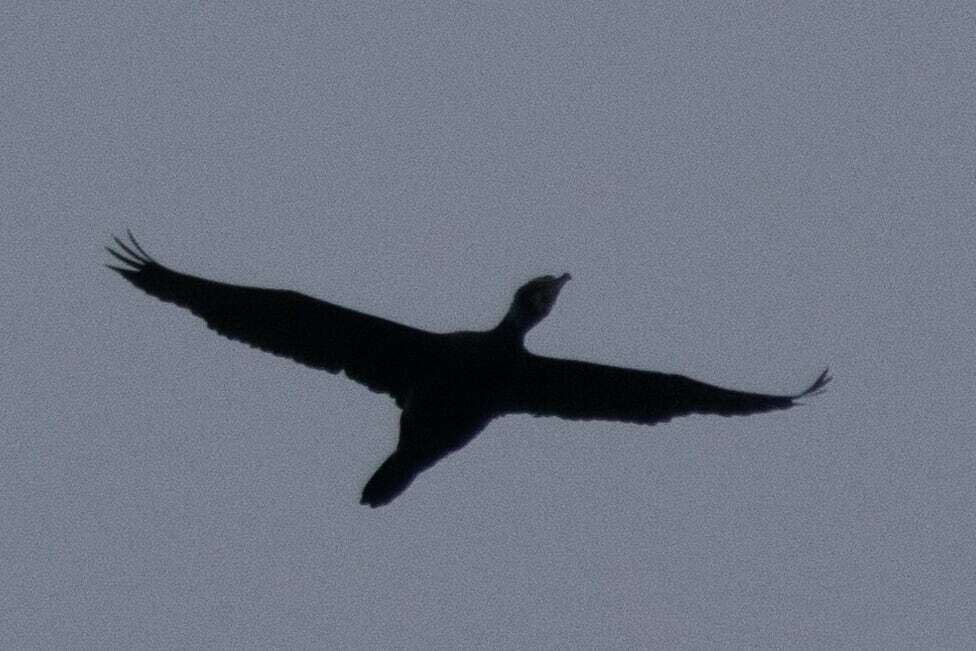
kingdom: Animalia
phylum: Chordata
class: Aves
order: Suliformes
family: Phalacrocoracidae
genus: Phalacrocorax
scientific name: Phalacrocorax carbo
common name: Great cormorant
